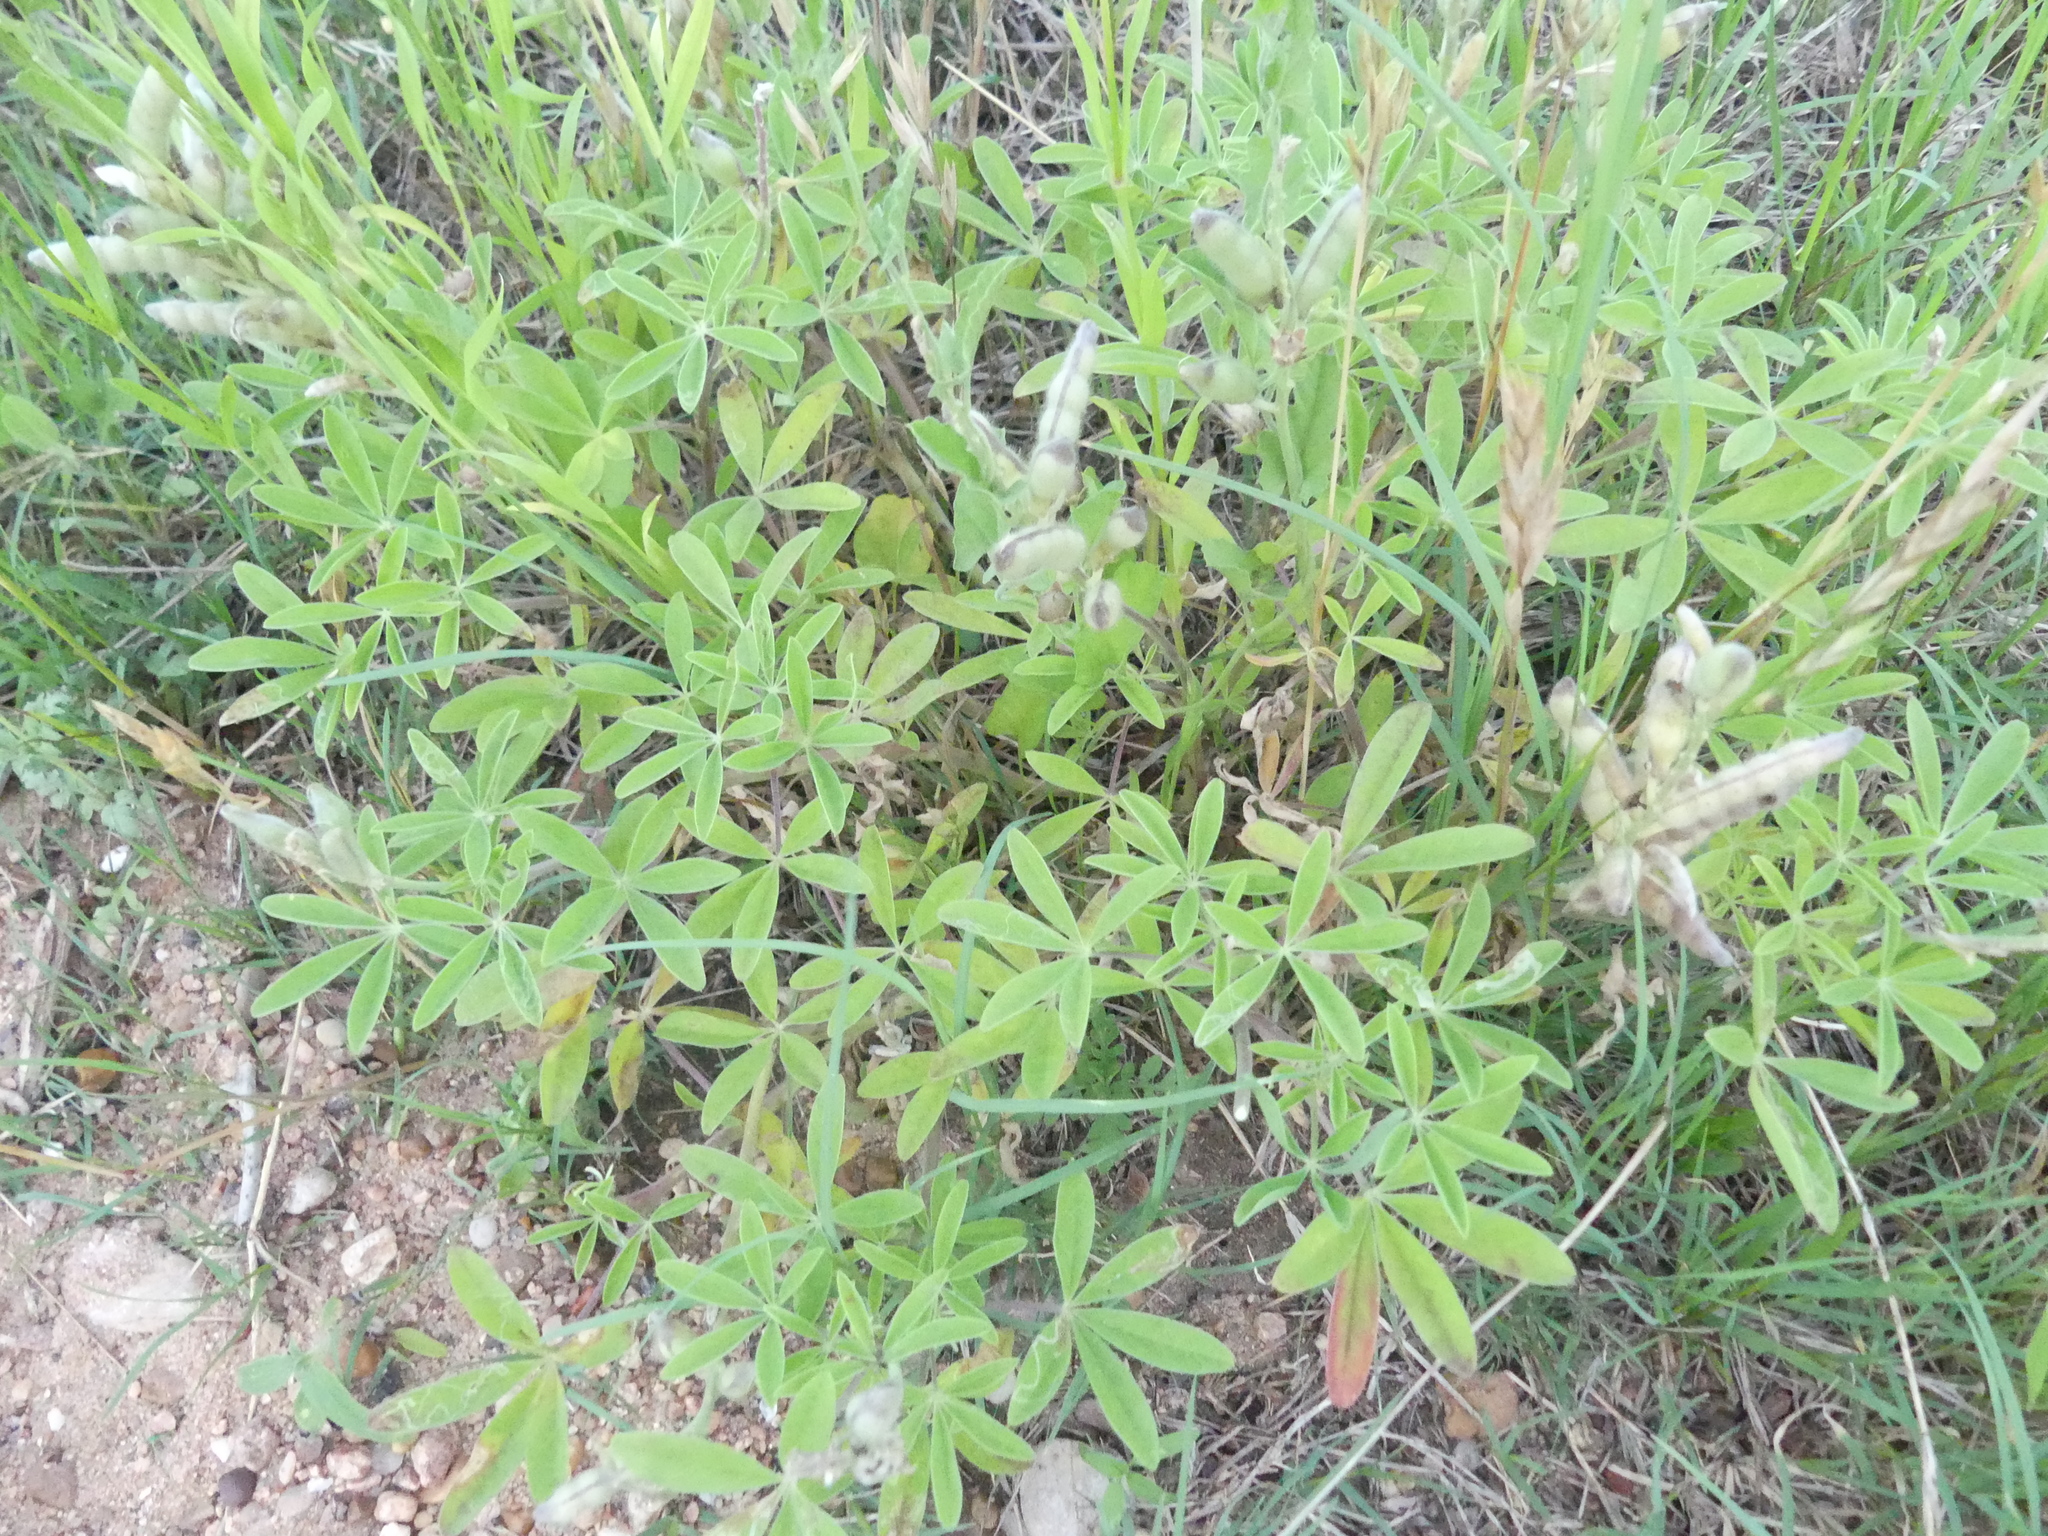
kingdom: Plantae
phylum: Tracheophyta
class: Magnoliopsida
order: Fabales
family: Fabaceae
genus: Lupinus
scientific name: Lupinus texensis
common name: Texas bluebonnet
